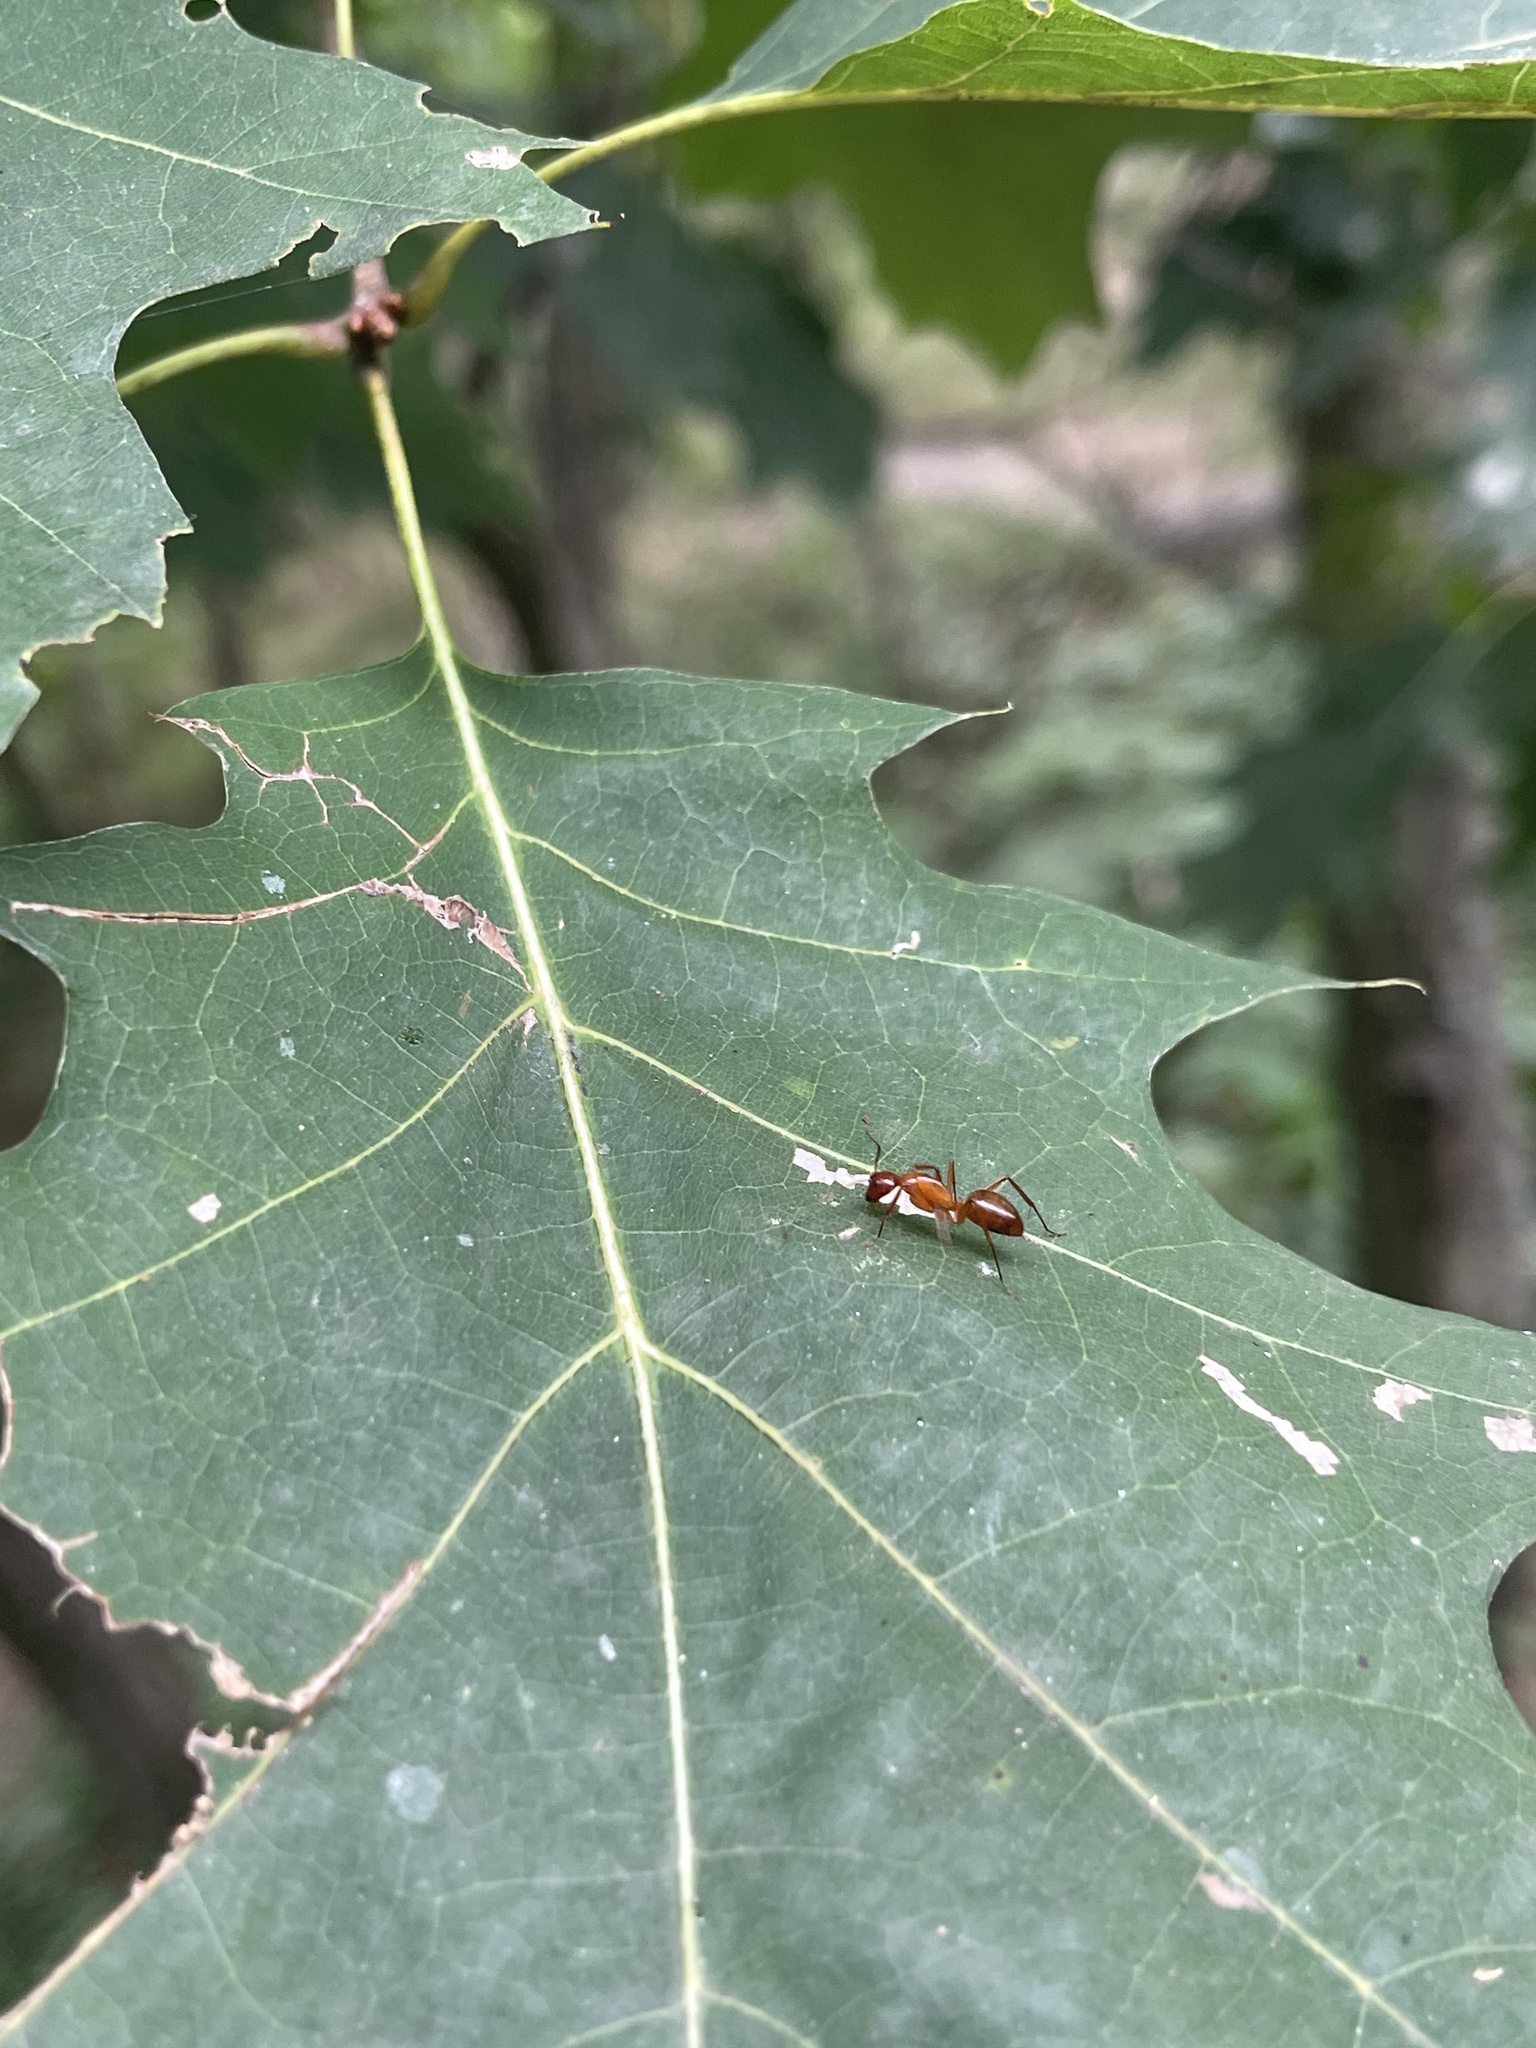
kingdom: Animalia
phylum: Arthropoda
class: Insecta
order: Hymenoptera
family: Formicidae
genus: Camponotus
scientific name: Camponotus castaneus
